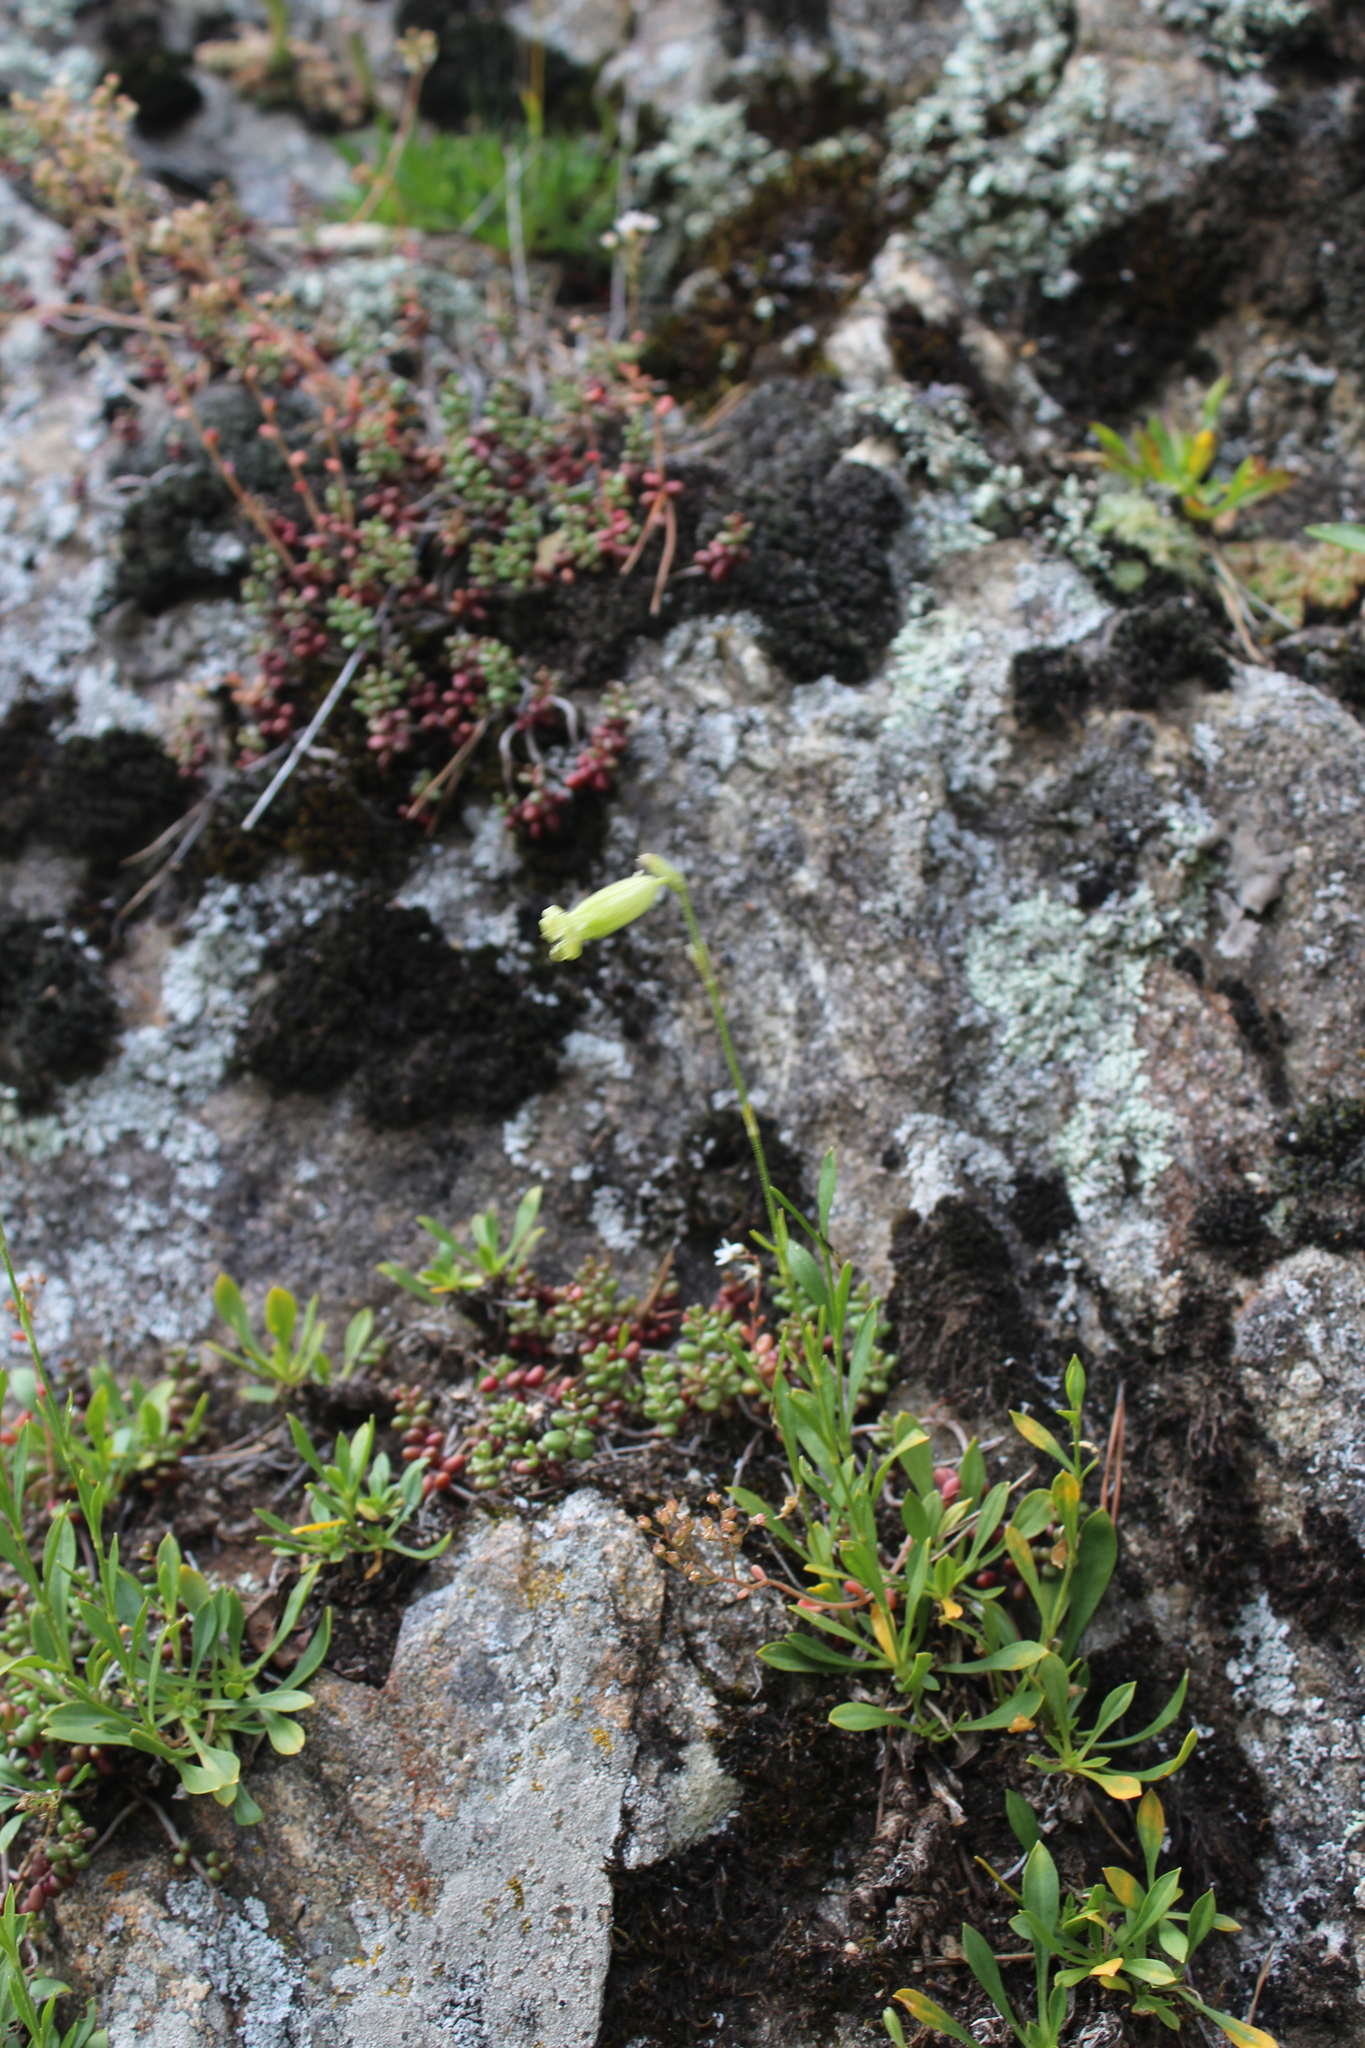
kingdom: Plantae
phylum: Tracheophyta
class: Magnoliopsida
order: Caryophyllales
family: Caryophyllaceae
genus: Silene
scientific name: Silene kubanensis
